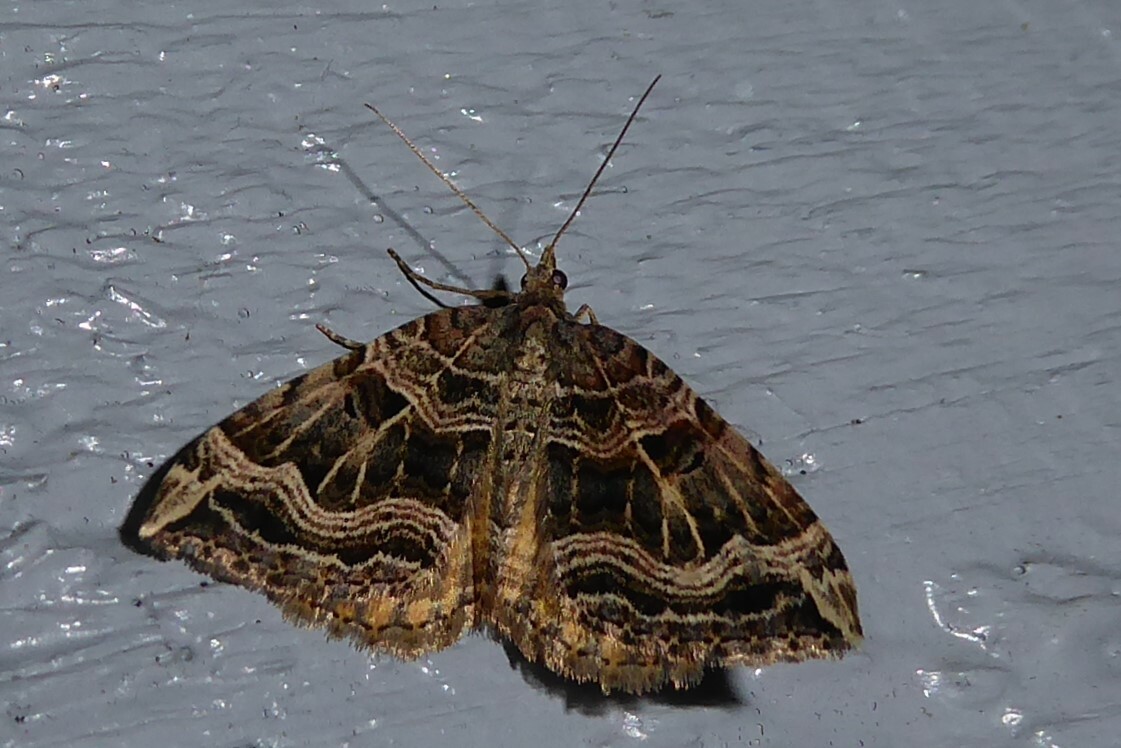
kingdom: Animalia
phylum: Arthropoda
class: Insecta
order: Lepidoptera
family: Geometridae
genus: Xanthorhoe
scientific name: Xanthorhoe semifissata
